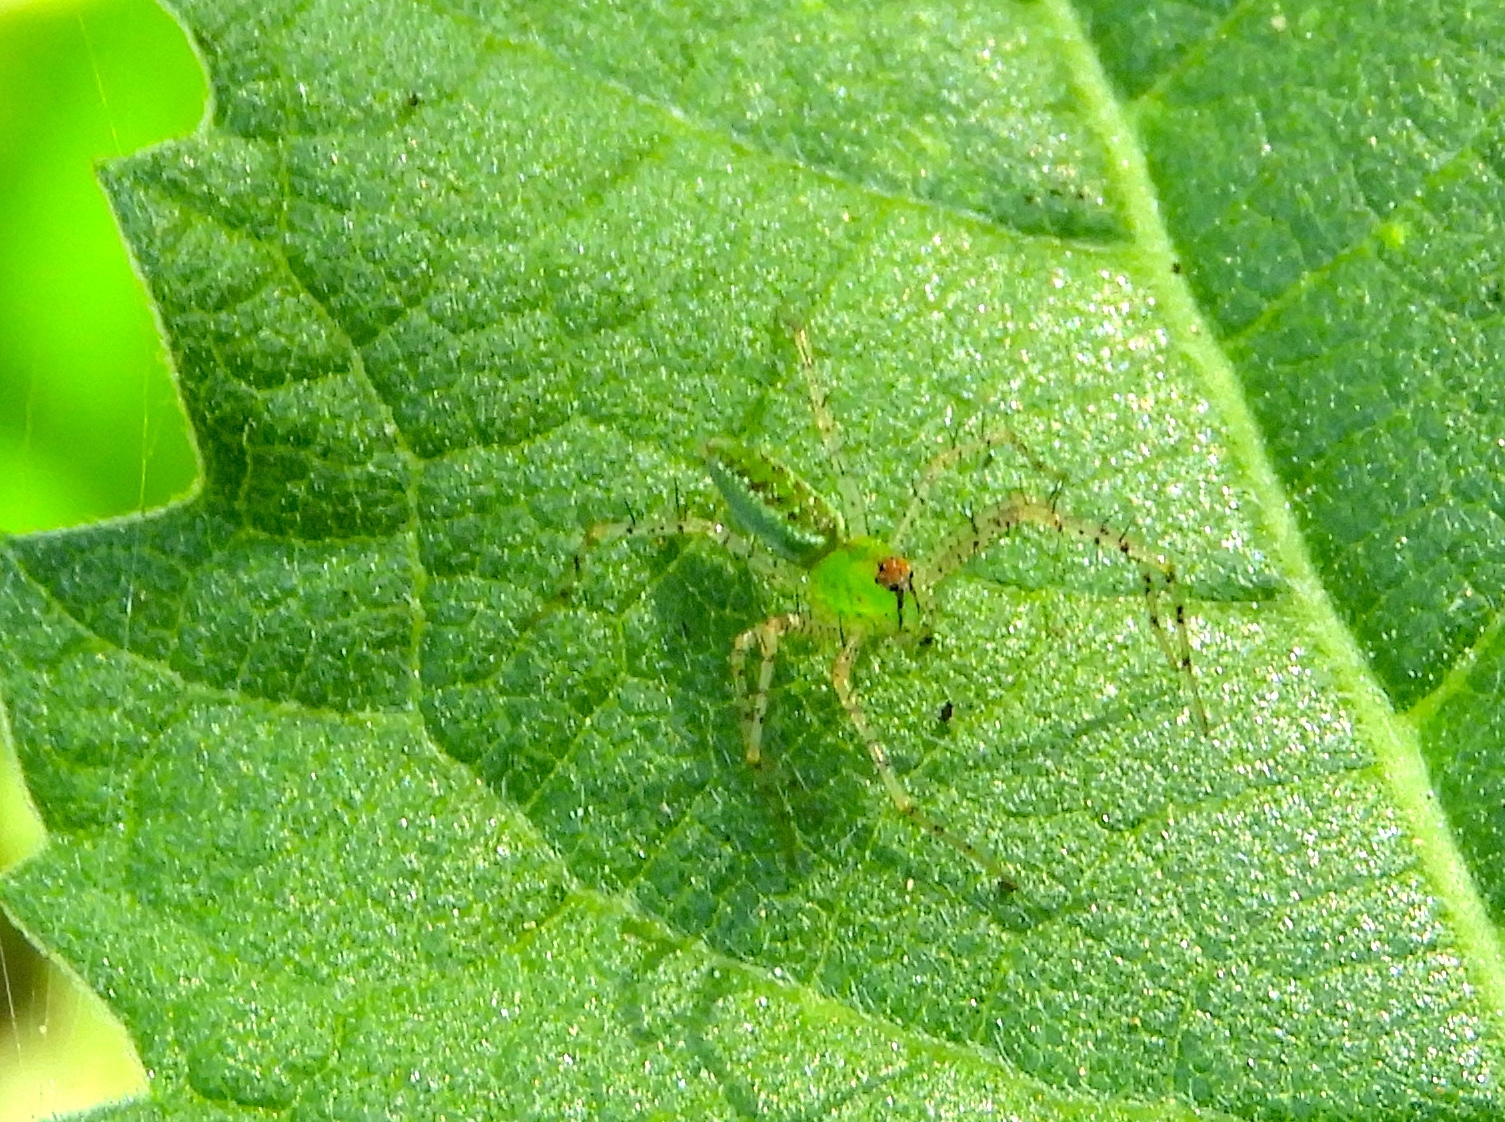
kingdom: Animalia
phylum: Arthropoda
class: Arachnida
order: Araneae
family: Oxyopidae
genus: Peucetia
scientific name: Peucetia
